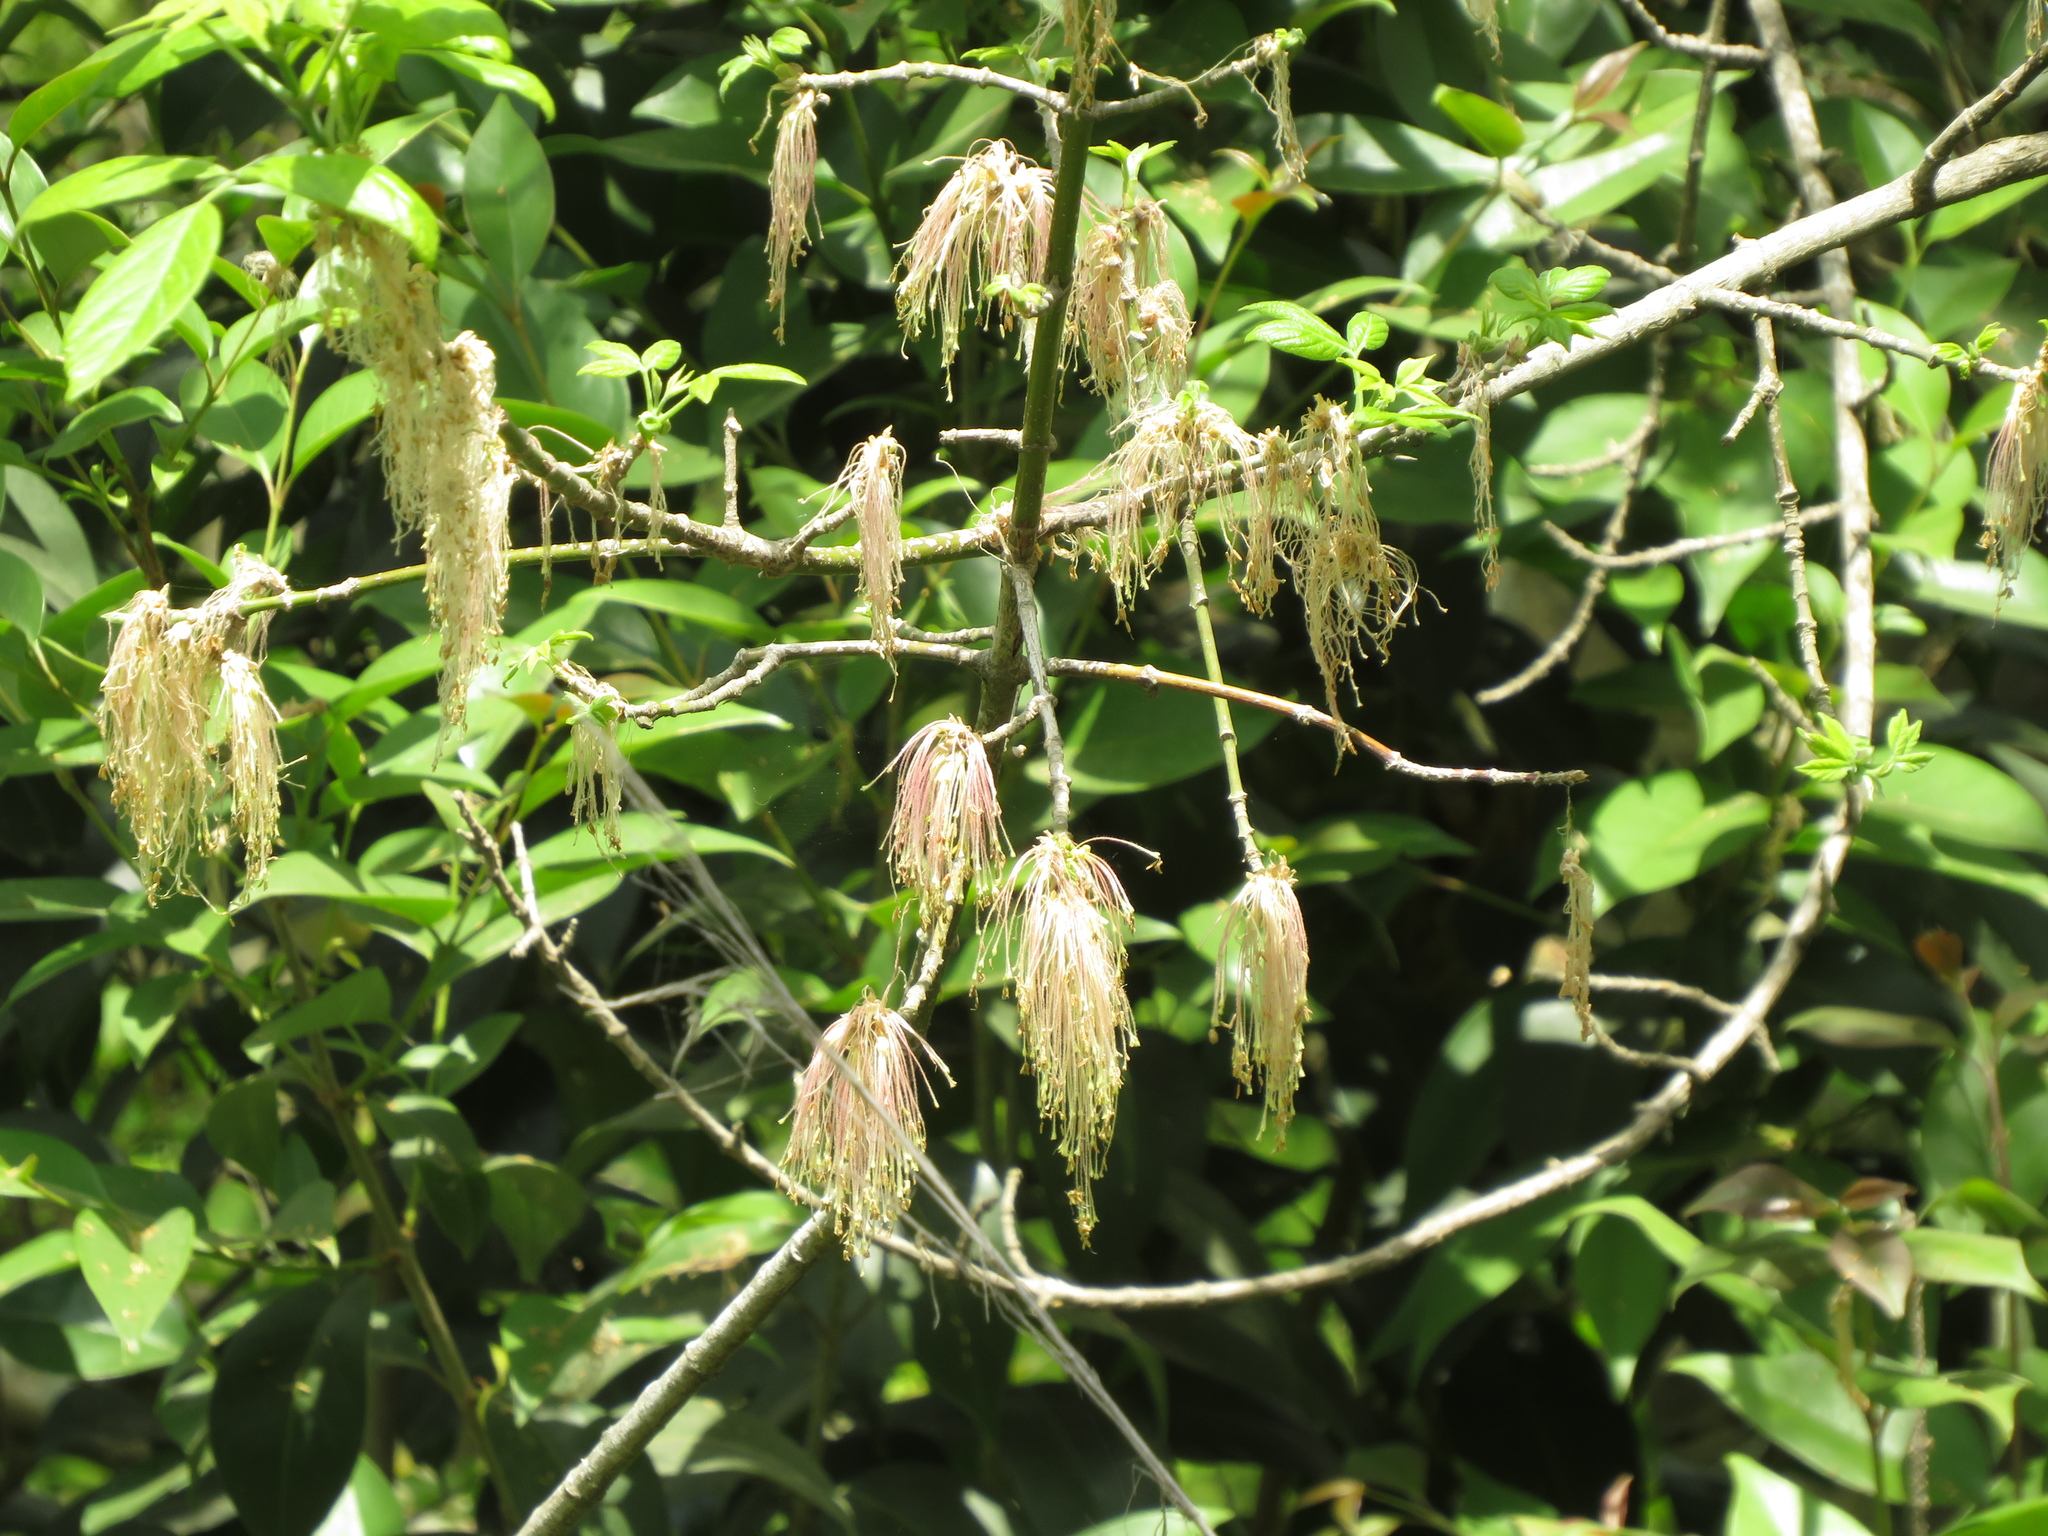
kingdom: Plantae
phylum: Tracheophyta
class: Magnoliopsida
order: Sapindales
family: Sapindaceae
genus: Acer
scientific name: Acer negundo
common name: Ashleaf maple
